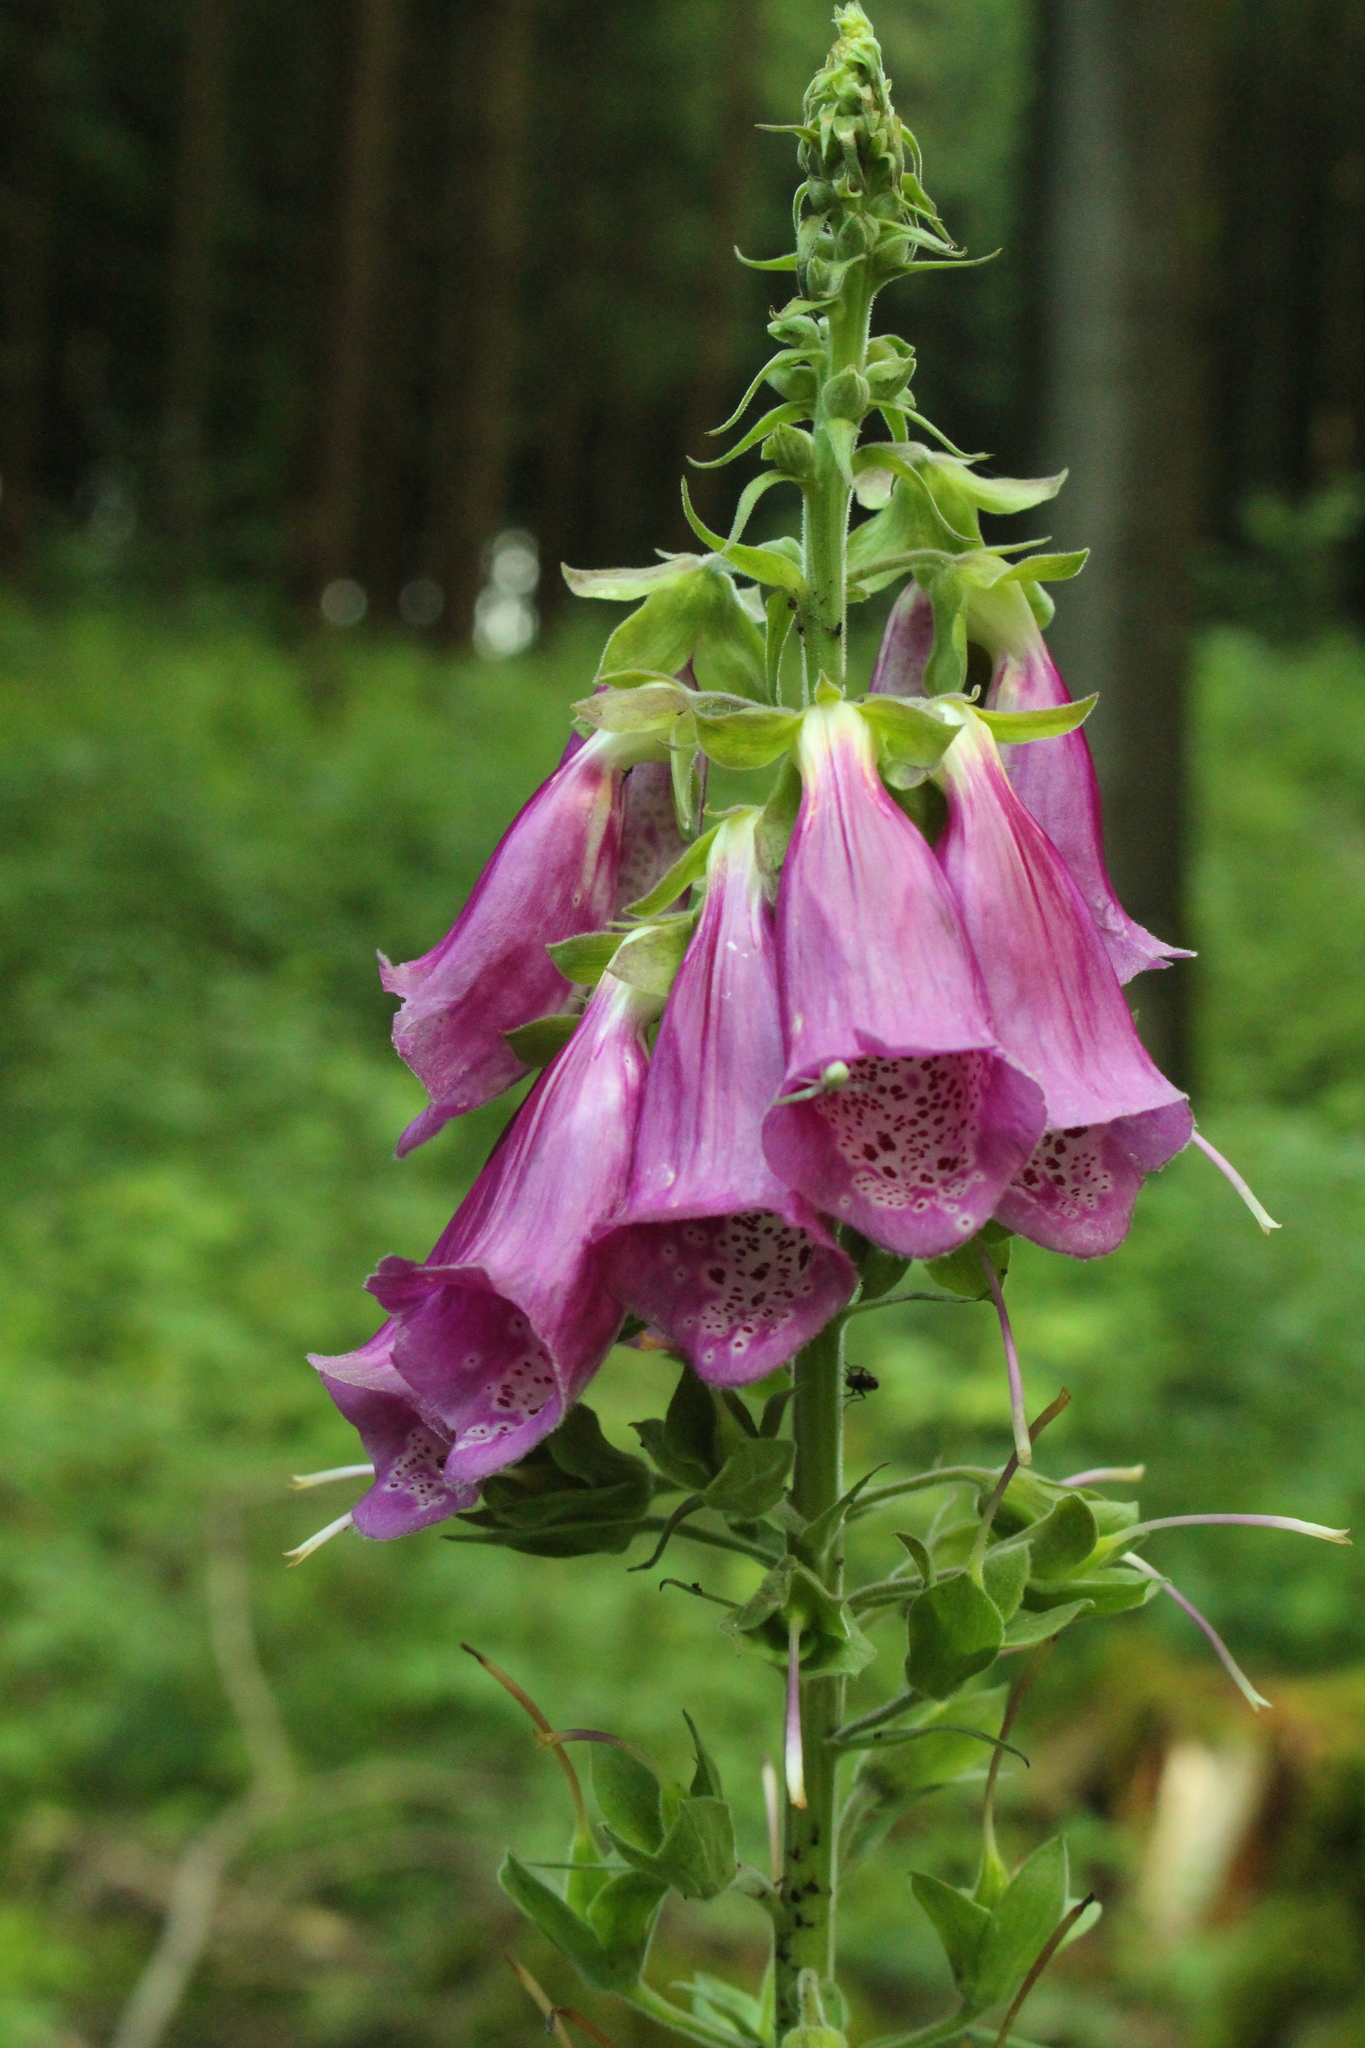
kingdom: Plantae
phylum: Tracheophyta
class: Magnoliopsida
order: Lamiales
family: Plantaginaceae
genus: Digitalis
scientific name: Digitalis purpurea
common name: Foxglove
